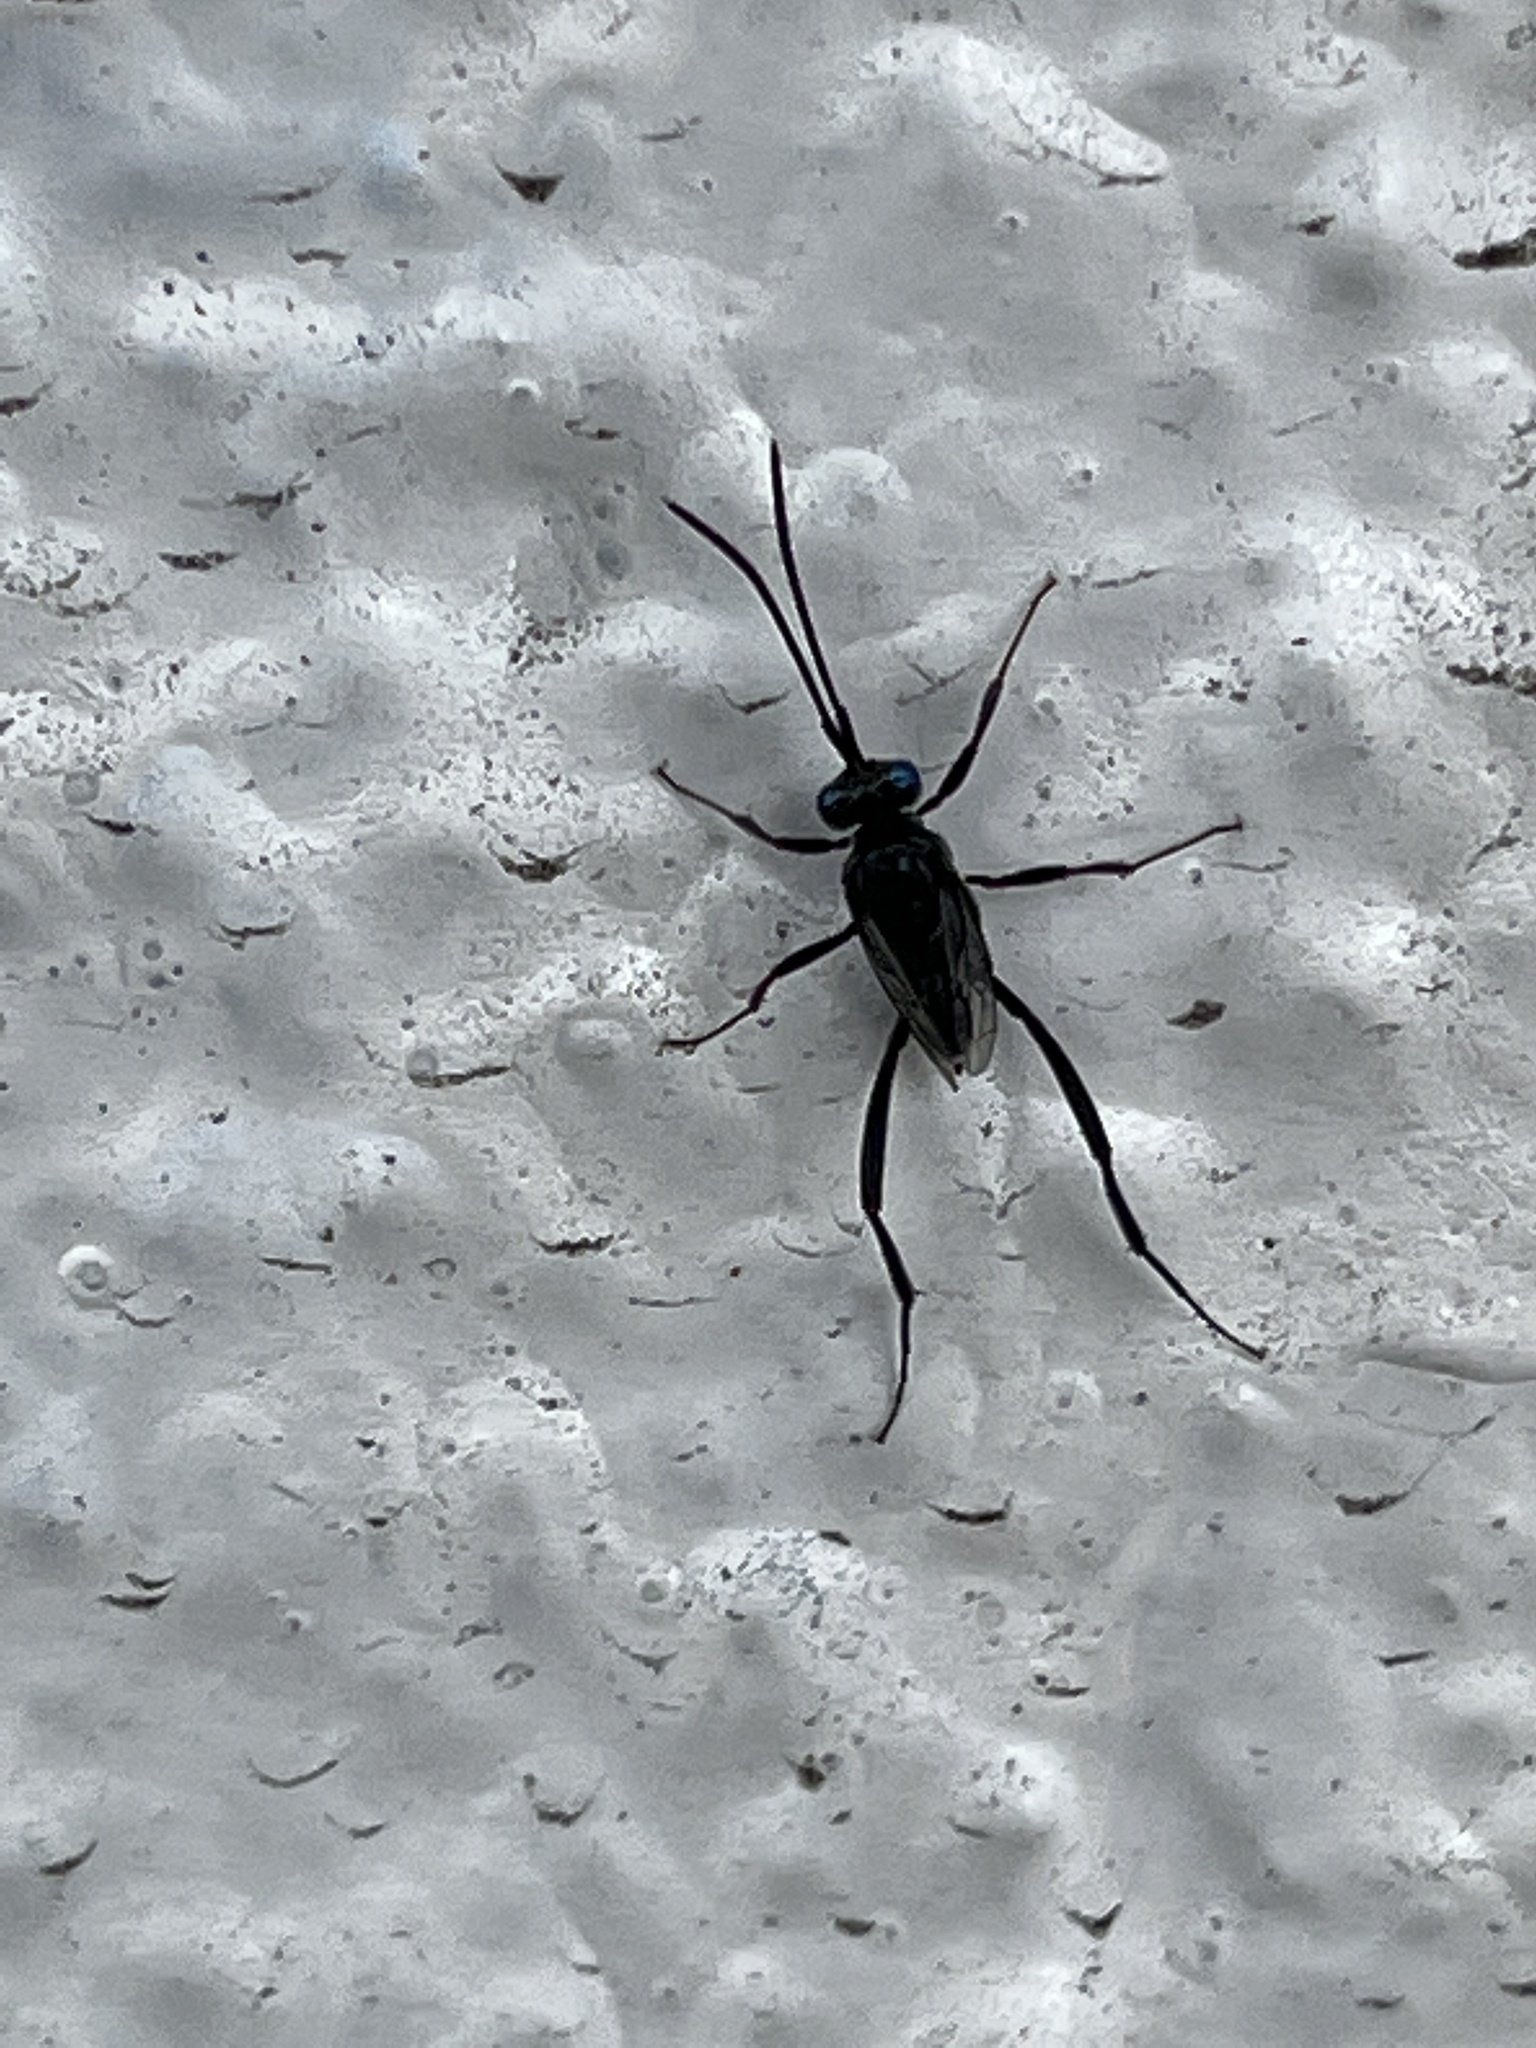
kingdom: Animalia
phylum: Arthropoda
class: Insecta
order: Hymenoptera
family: Evaniidae
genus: Evania
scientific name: Evania appendigaster
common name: Ensign wasp
